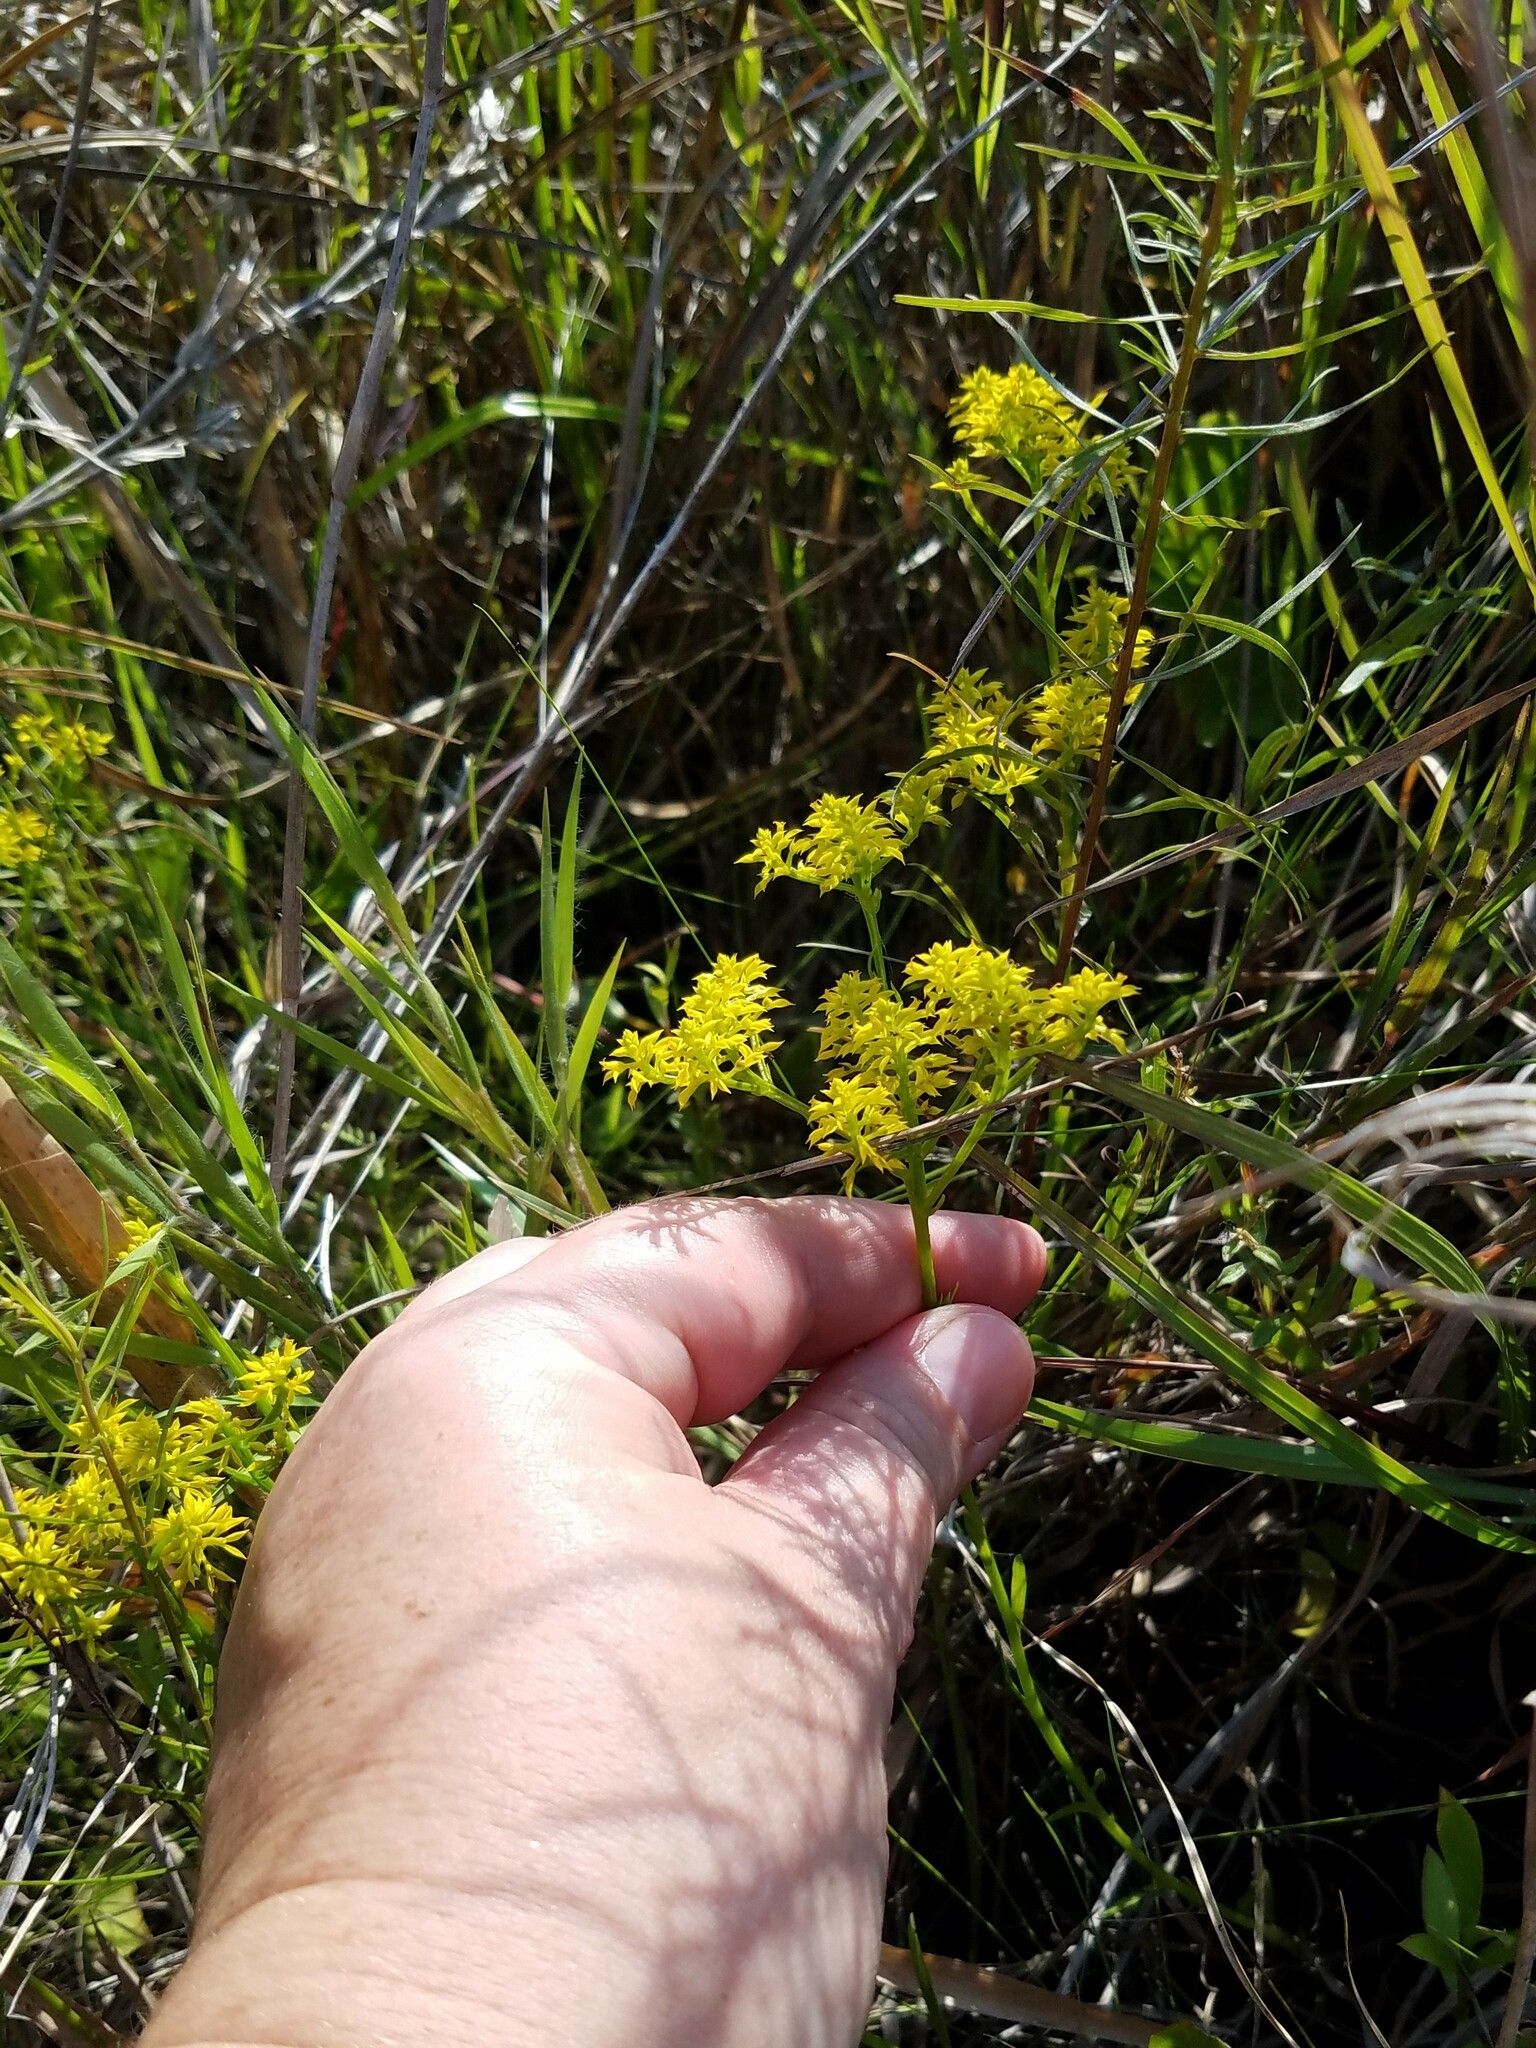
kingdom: Plantae
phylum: Tracheophyta
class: Magnoliopsida
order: Fabales
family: Polygalaceae
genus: Polygala
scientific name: Polygala ramosa
